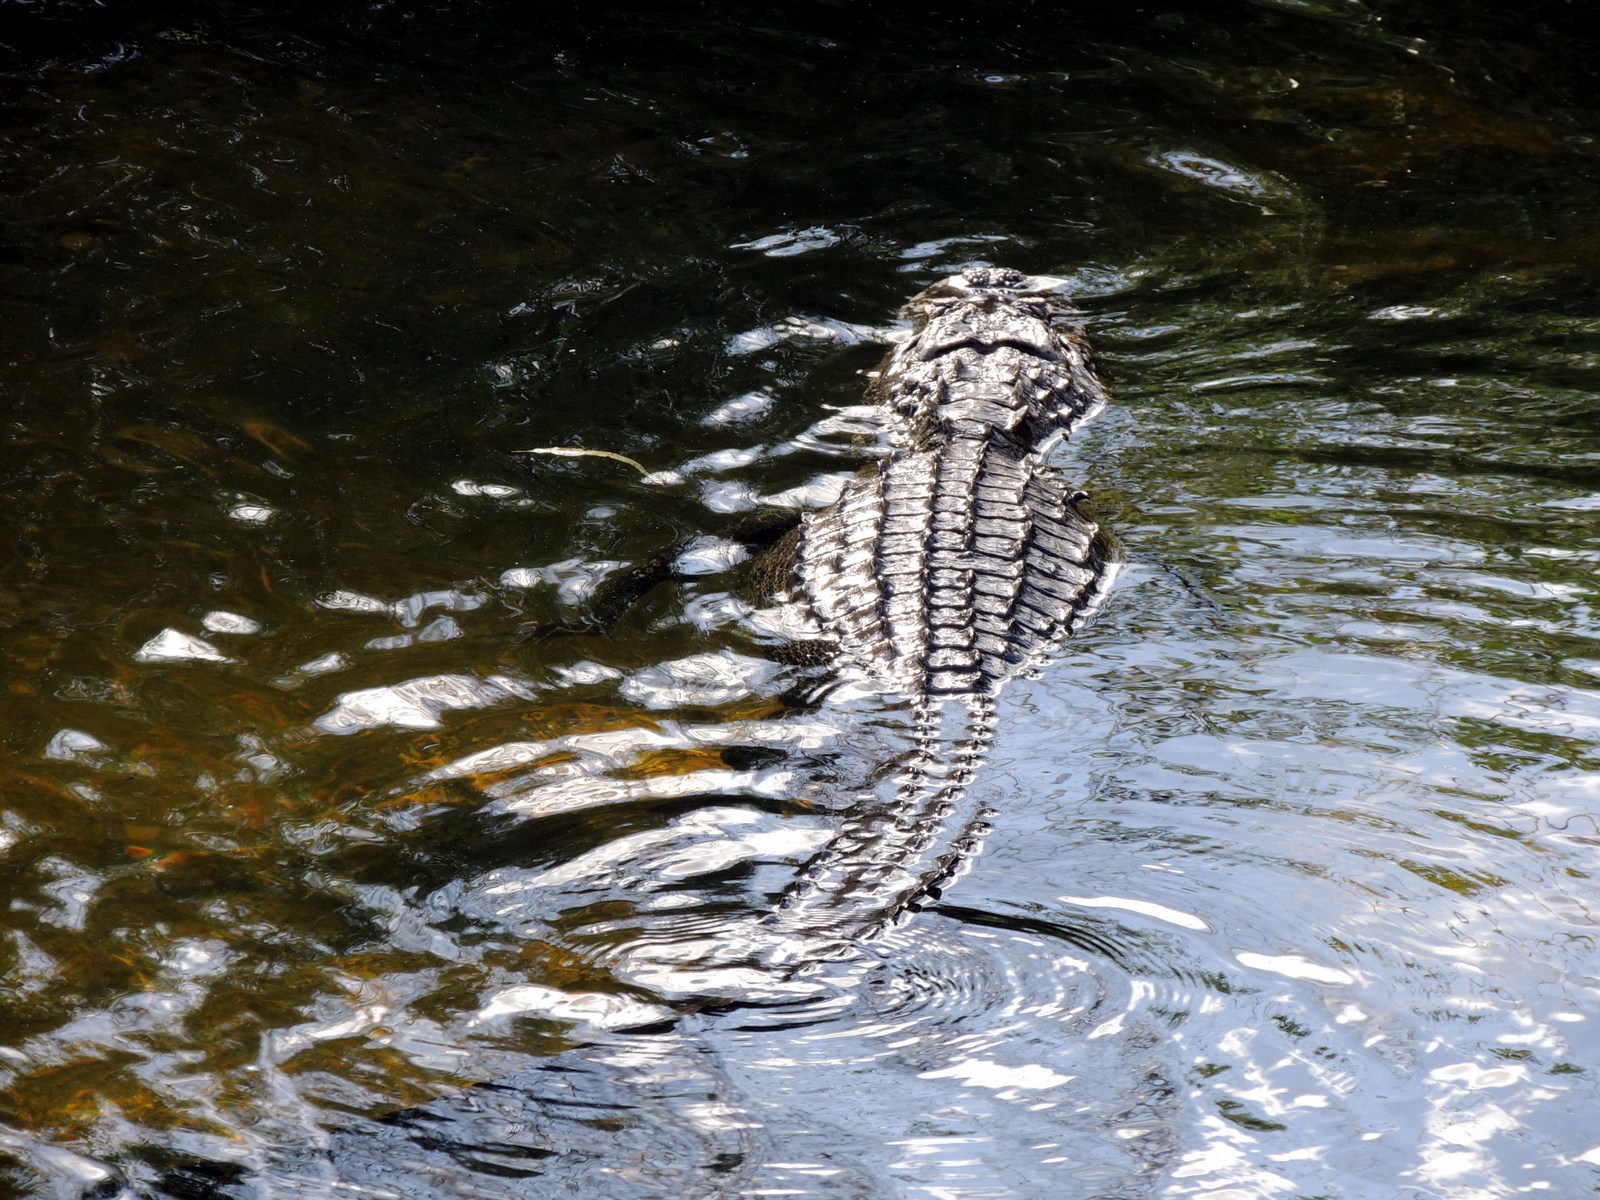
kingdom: Animalia
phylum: Chordata
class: Crocodylia
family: Alligatoridae
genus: Alligator
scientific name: Alligator mississippiensis
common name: American alligator
